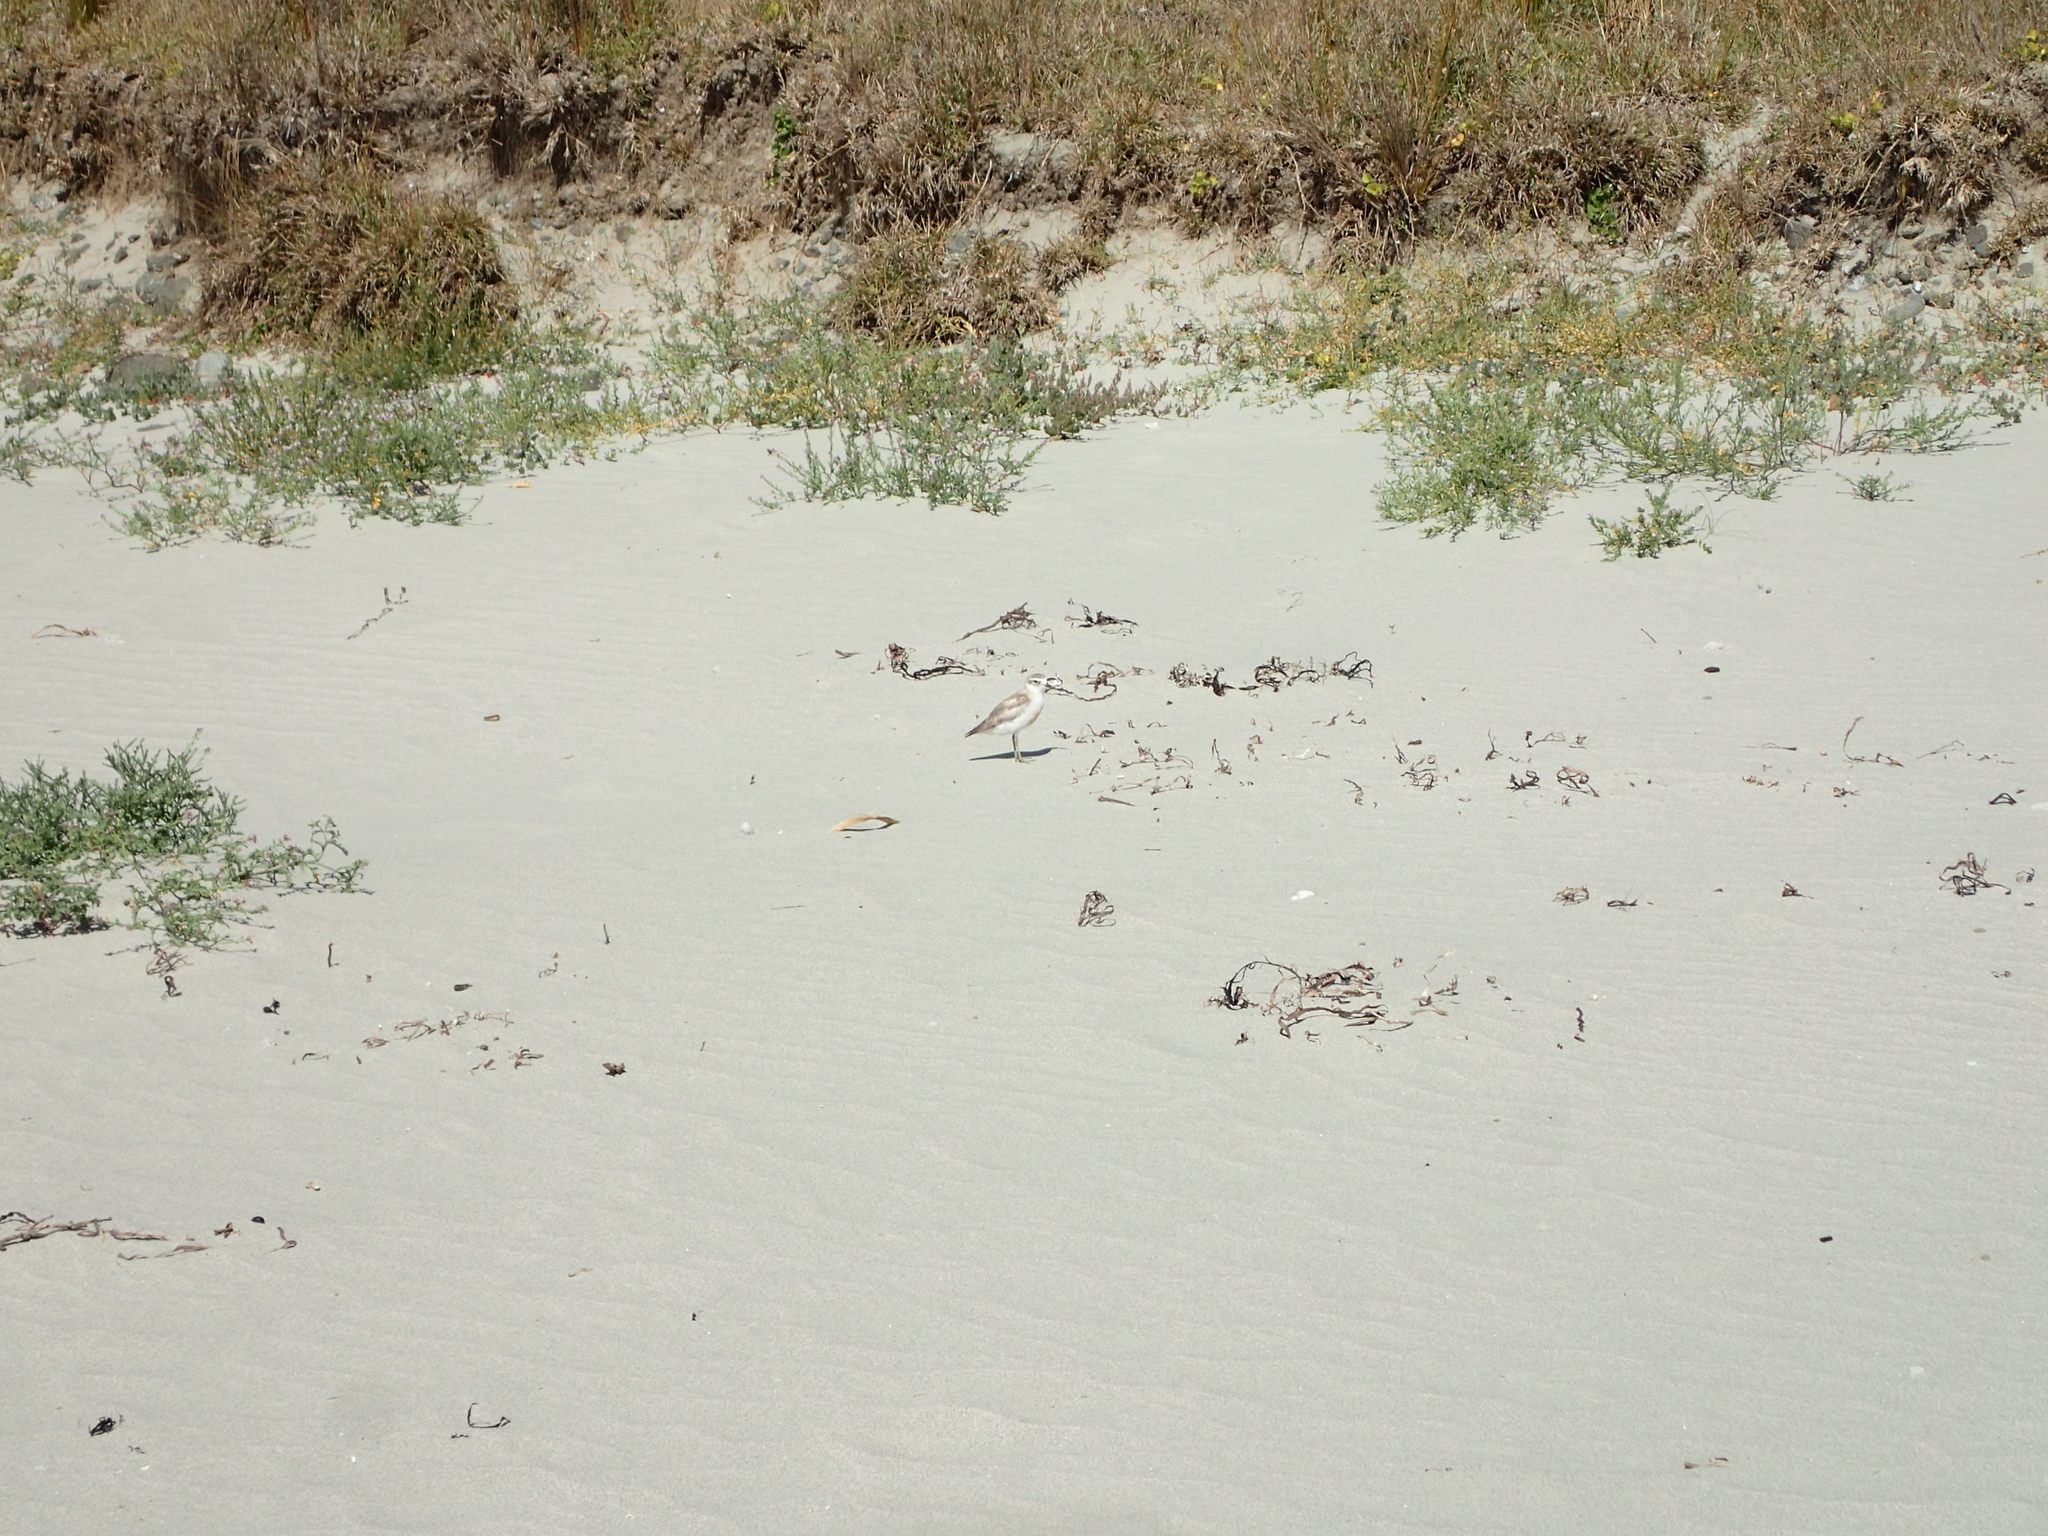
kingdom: Animalia
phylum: Chordata
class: Aves
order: Charadriiformes
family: Charadriidae
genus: Anarhynchus
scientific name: Anarhynchus
